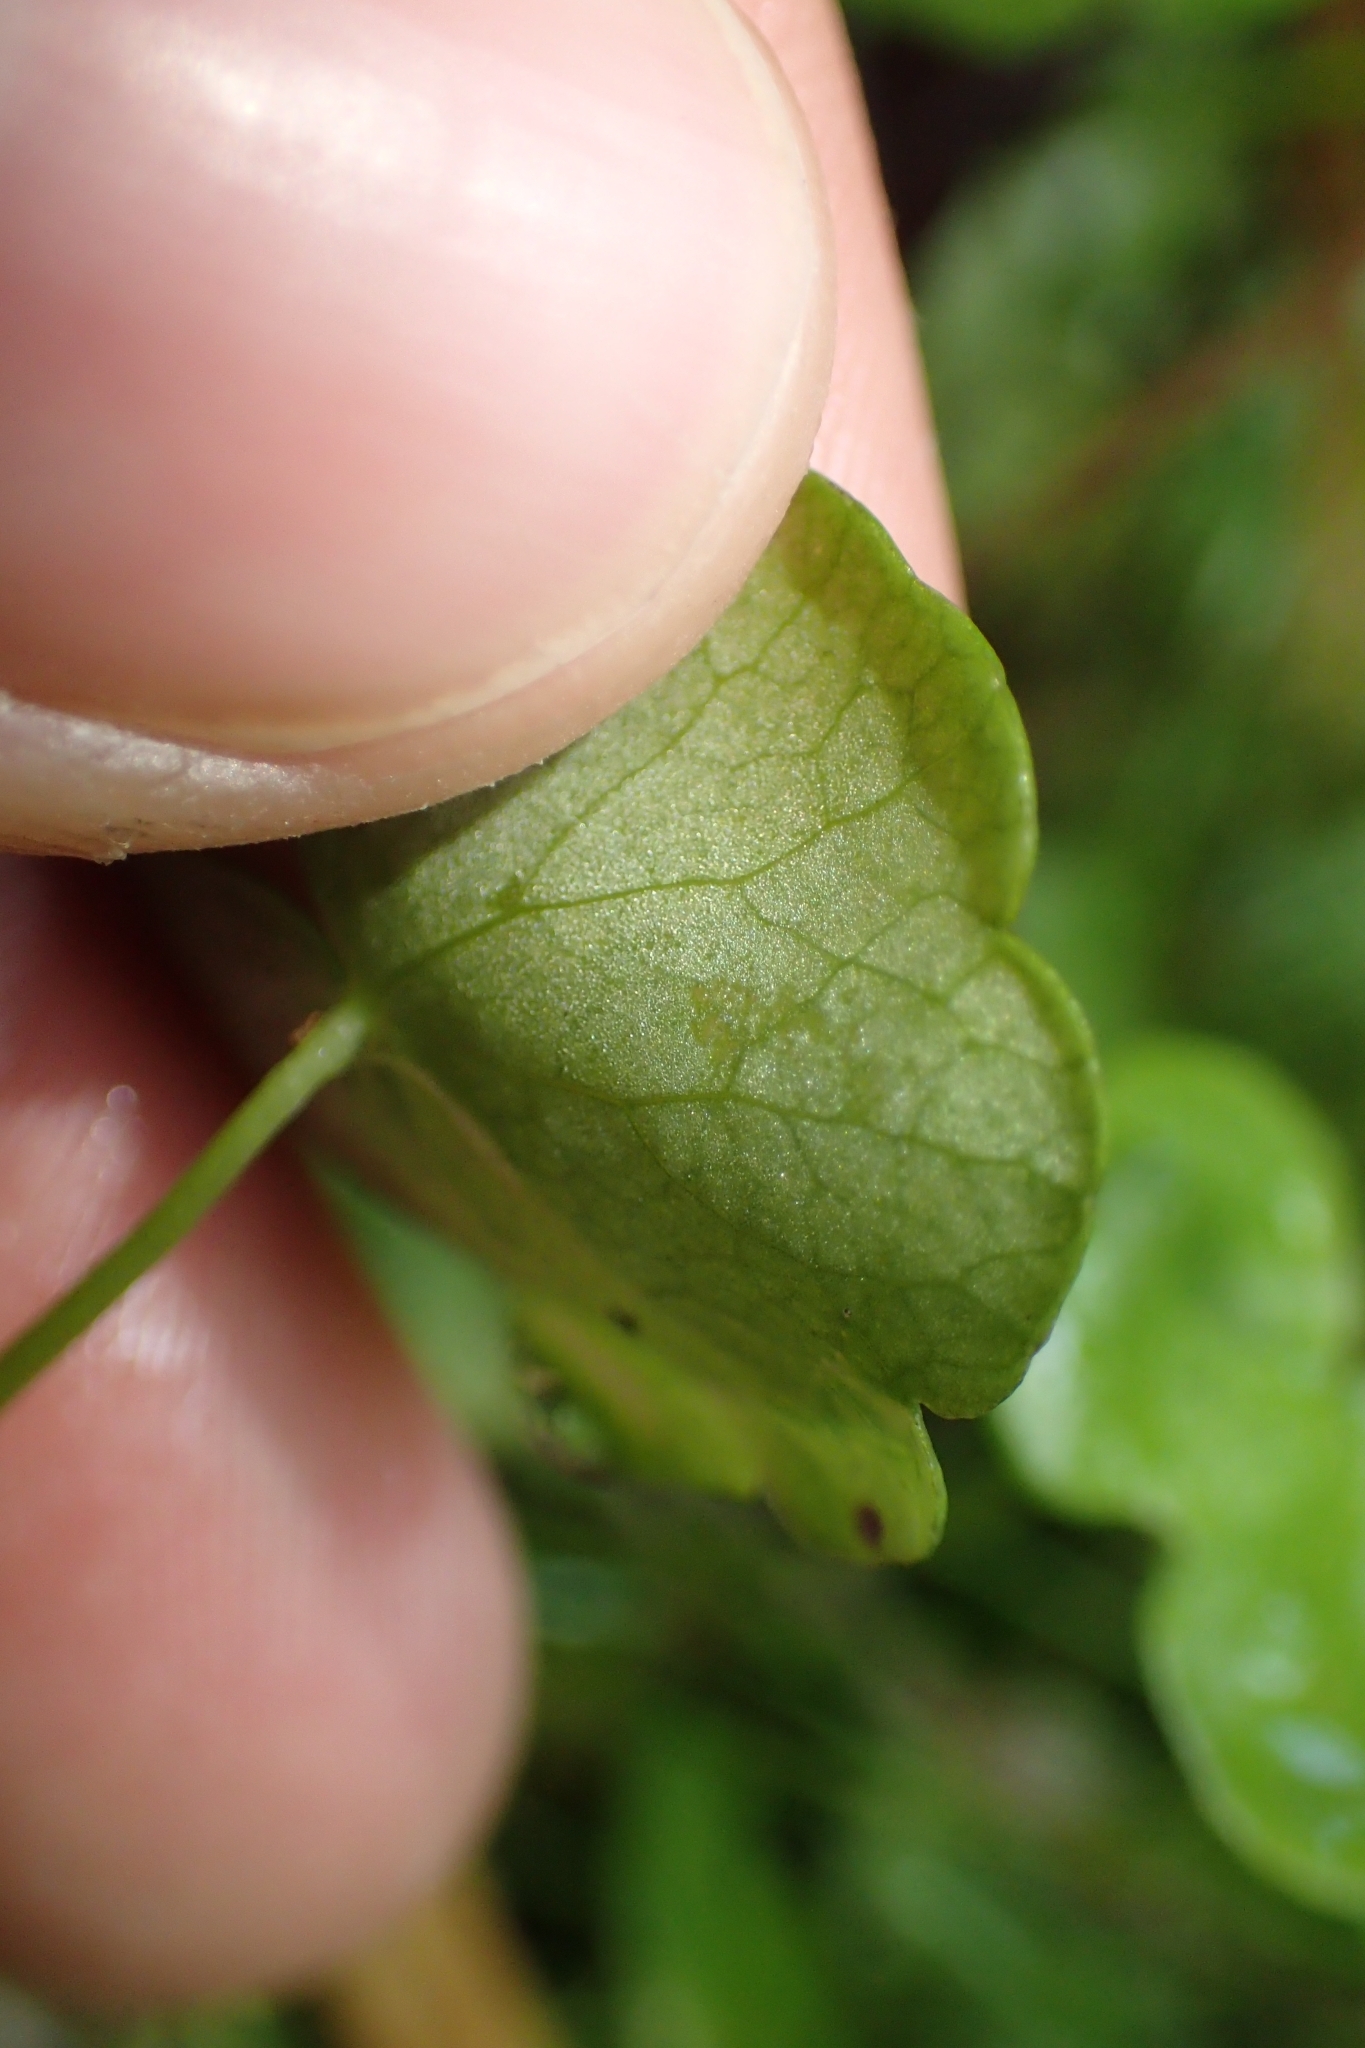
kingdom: Plantae
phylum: Tracheophyta
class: Magnoliopsida
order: Apiales
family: Araliaceae
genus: Hydrocotyle
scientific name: Hydrocotyle pterocarpa
